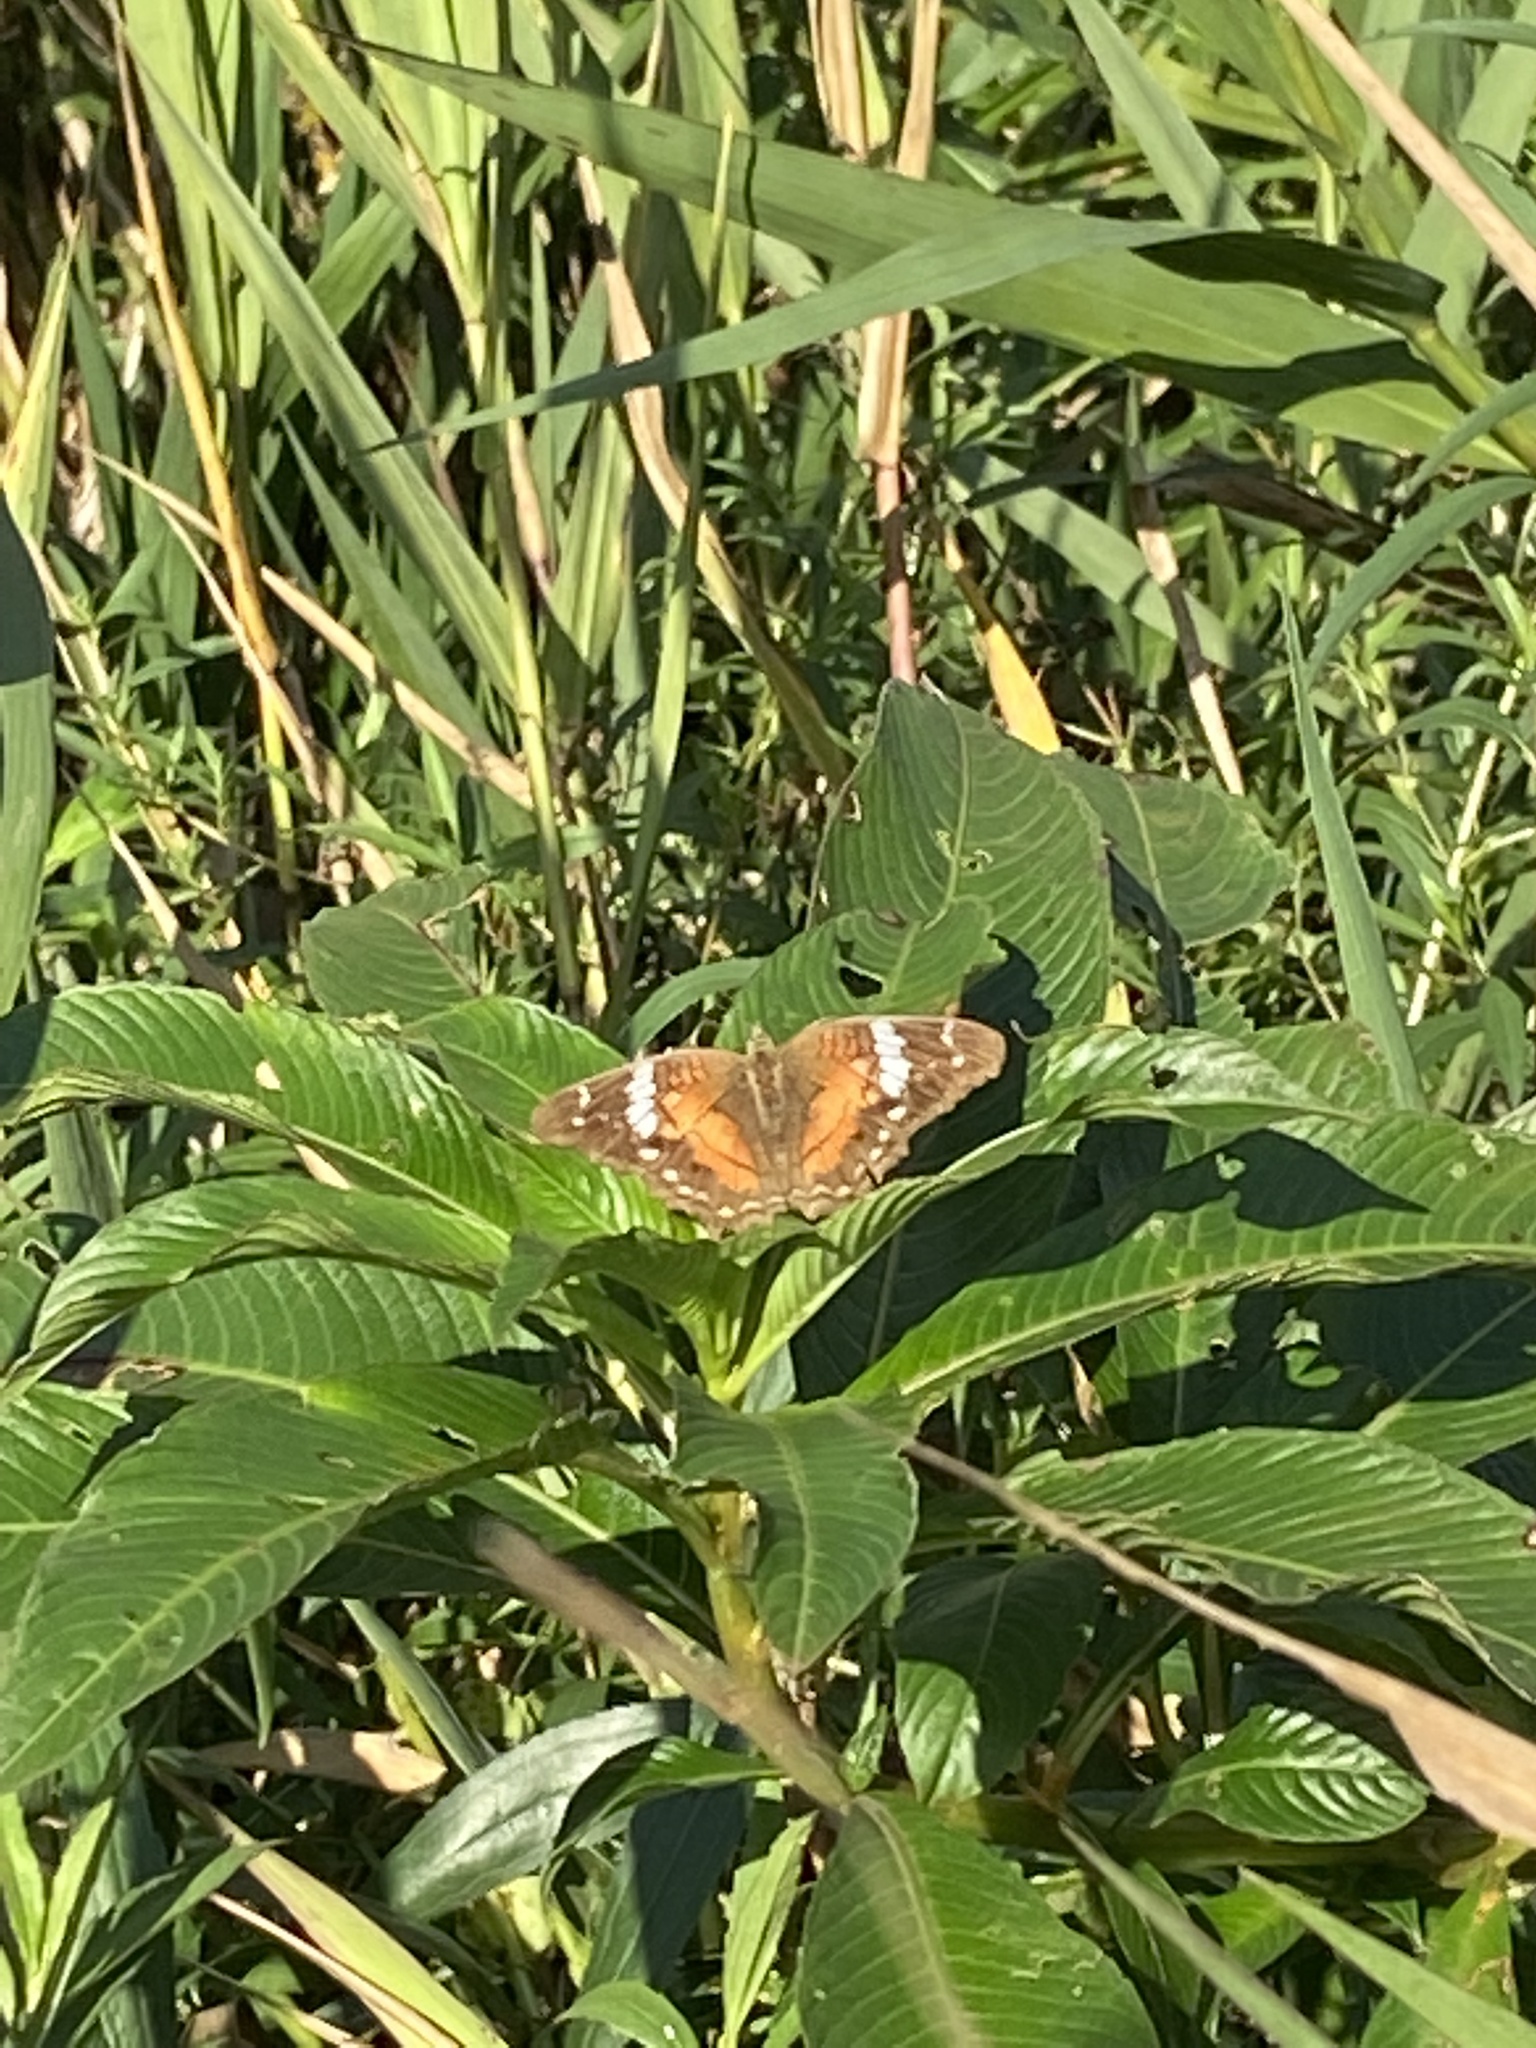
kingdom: Animalia
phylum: Arthropoda
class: Insecta
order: Lepidoptera
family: Nymphalidae
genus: Anartia
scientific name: Anartia amathea
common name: Red peacock
